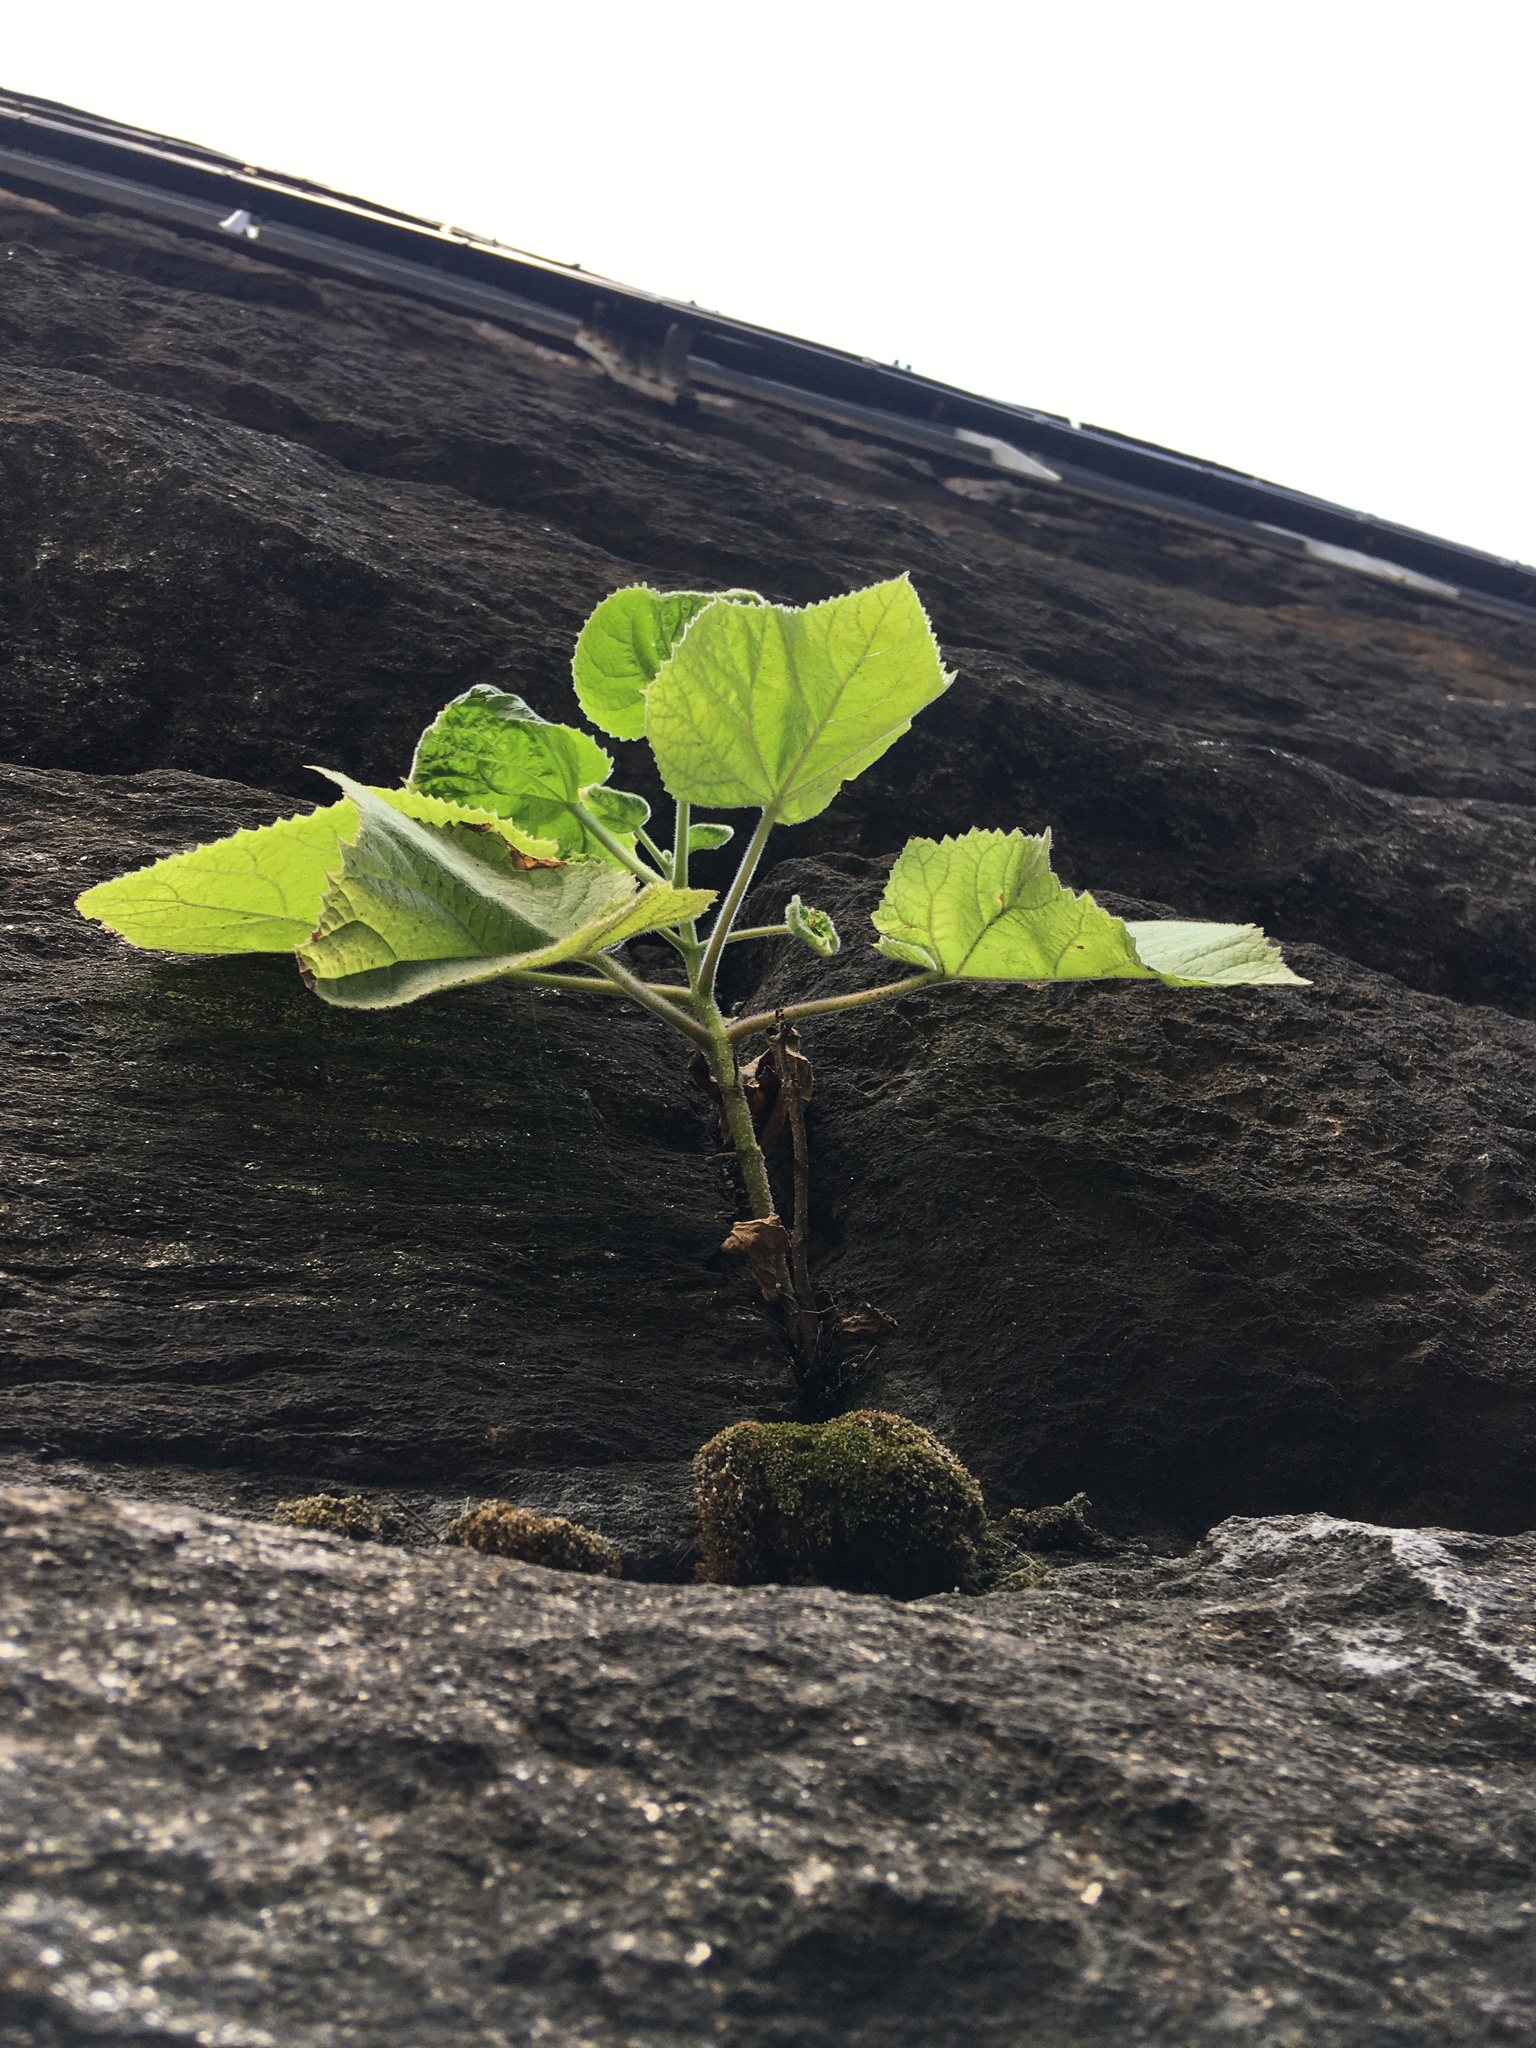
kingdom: Plantae
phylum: Tracheophyta
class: Magnoliopsida
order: Lamiales
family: Paulowniaceae
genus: Paulownia
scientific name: Paulownia tomentosa
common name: Foxglove-tree
